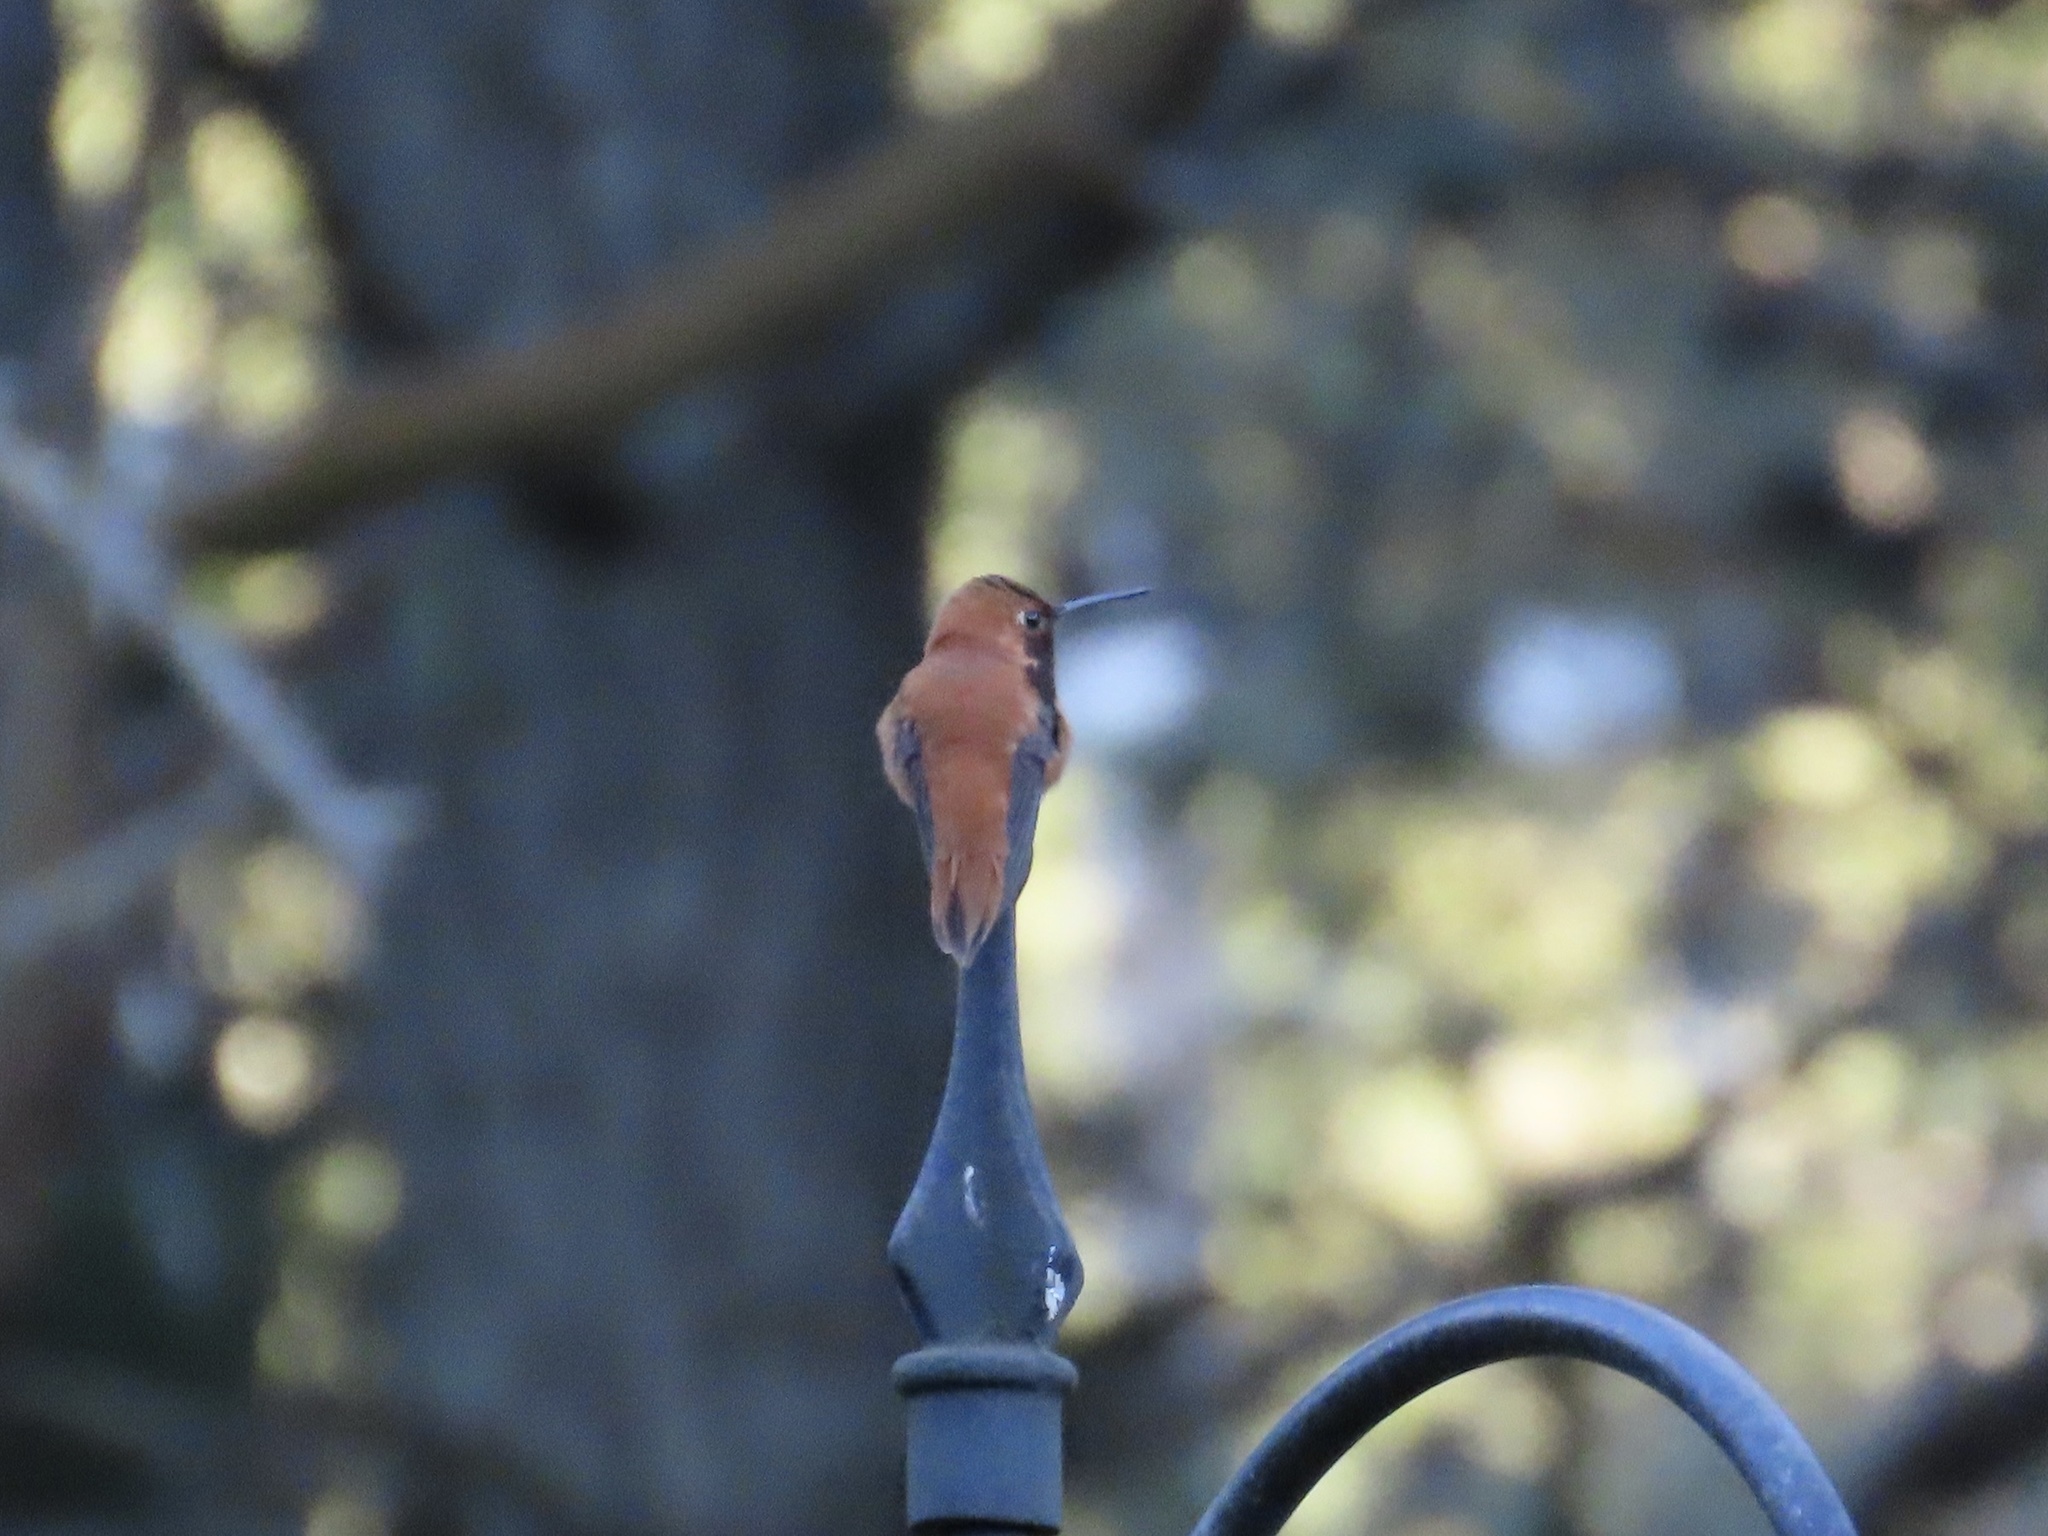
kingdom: Animalia
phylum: Chordata
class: Aves
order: Apodiformes
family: Trochilidae
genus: Selasphorus
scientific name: Selasphorus rufus
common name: Rufous hummingbird
